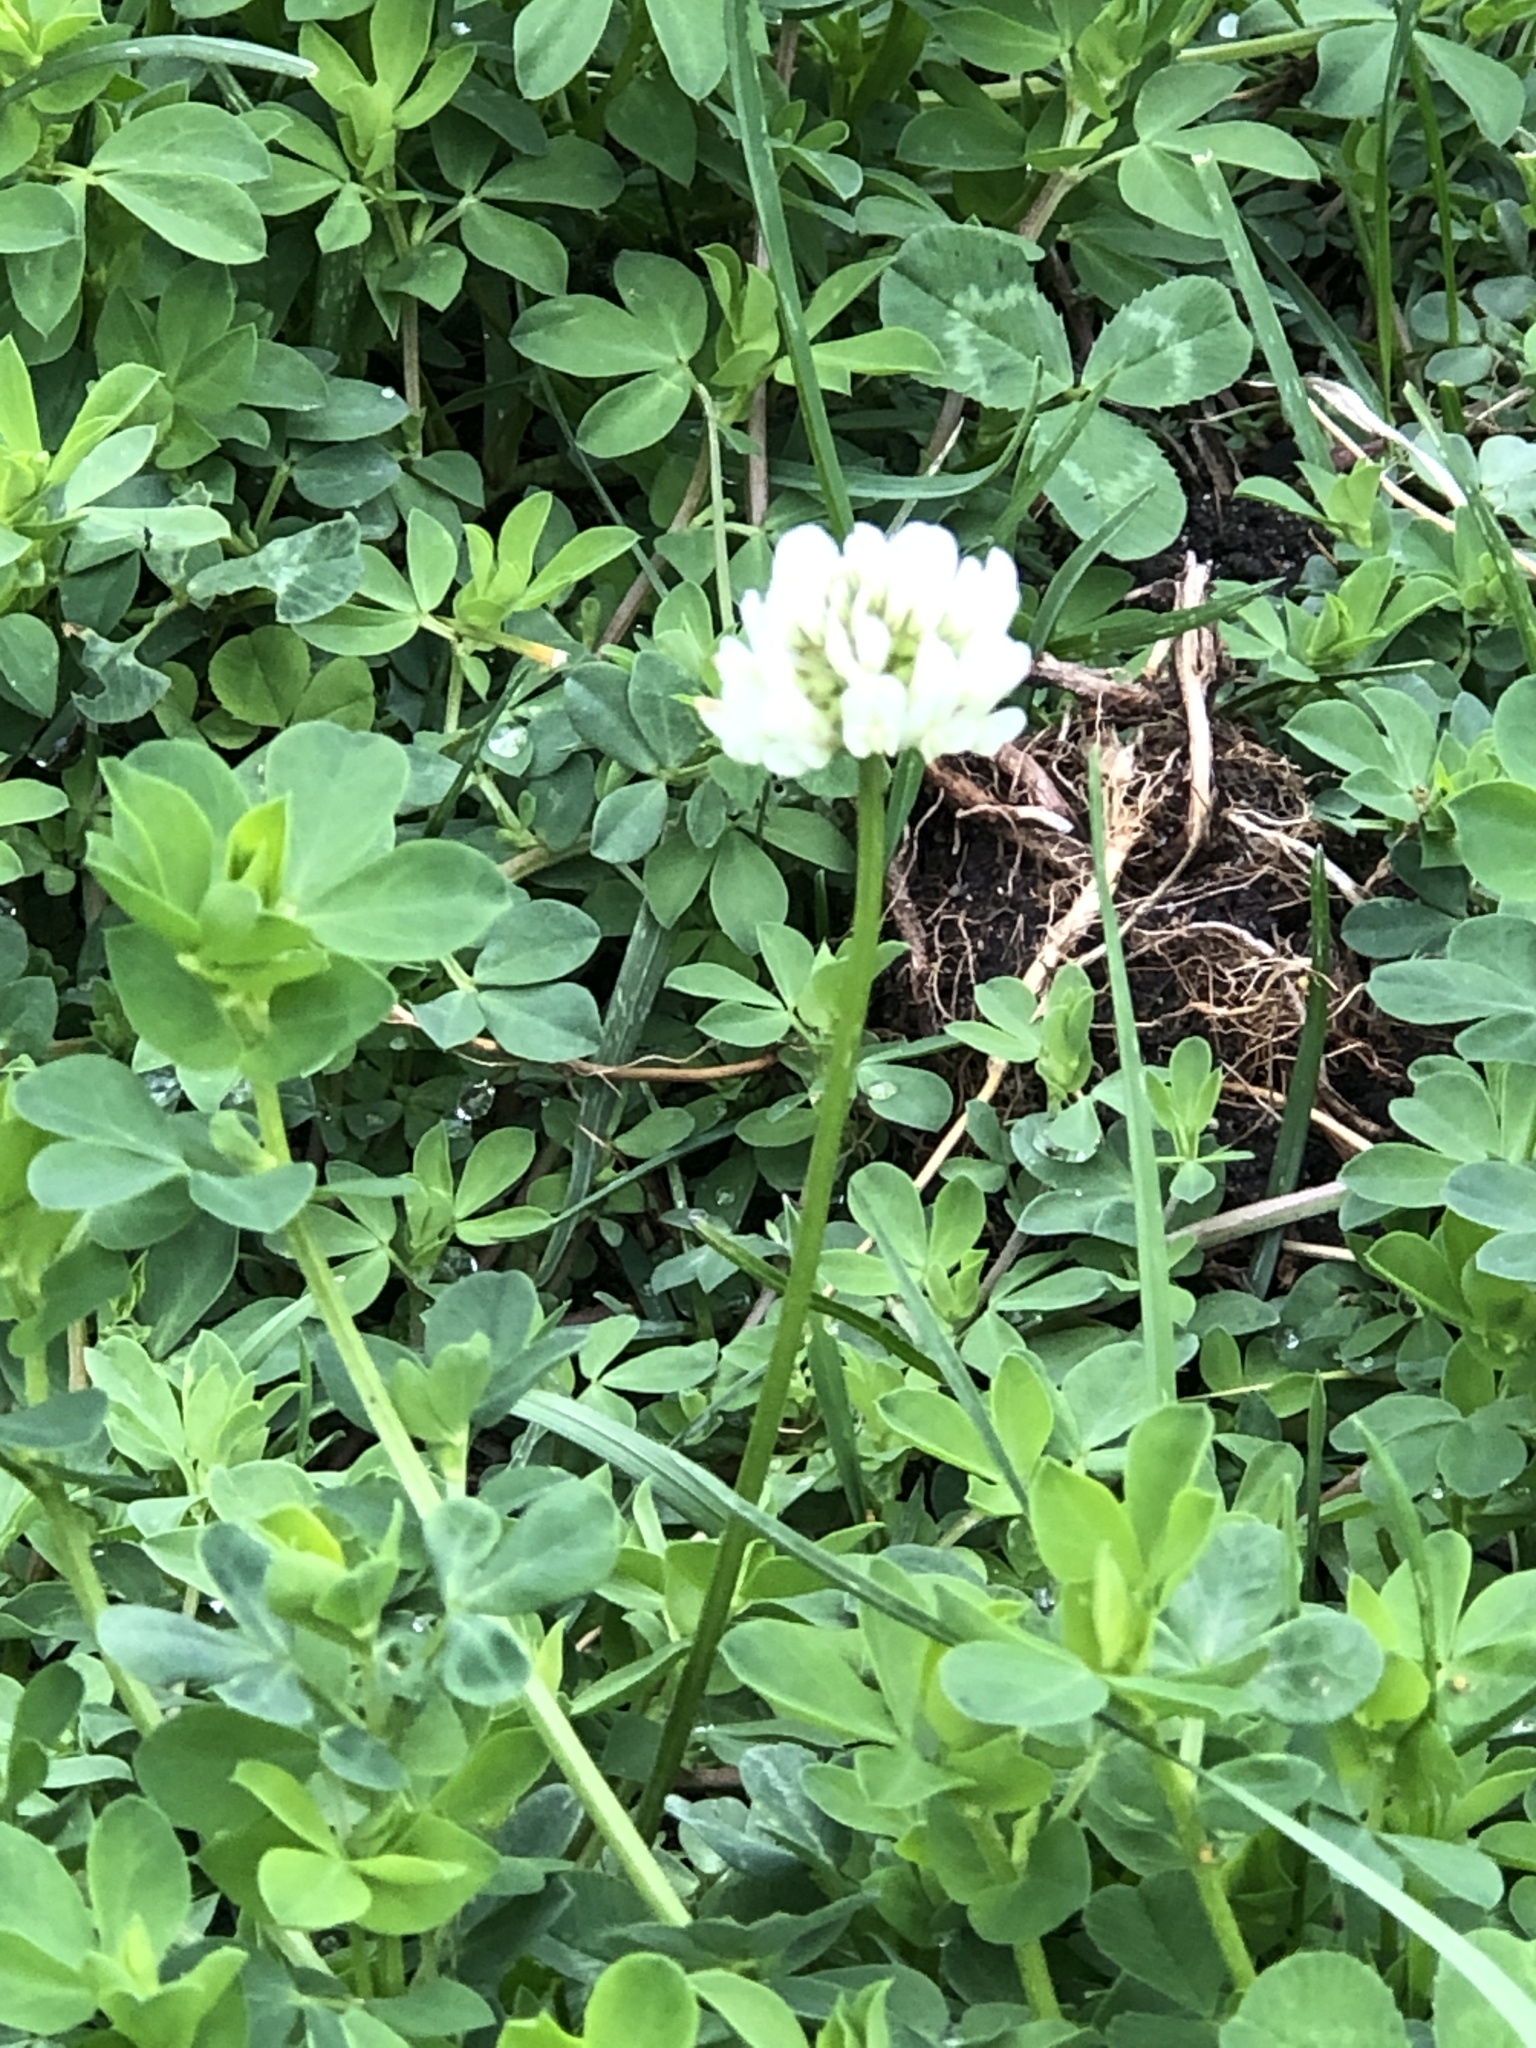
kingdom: Plantae
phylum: Tracheophyta
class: Magnoliopsida
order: Fabales
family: Fabaceae
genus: Trifolium
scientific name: Trifolium repens
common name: White clover
